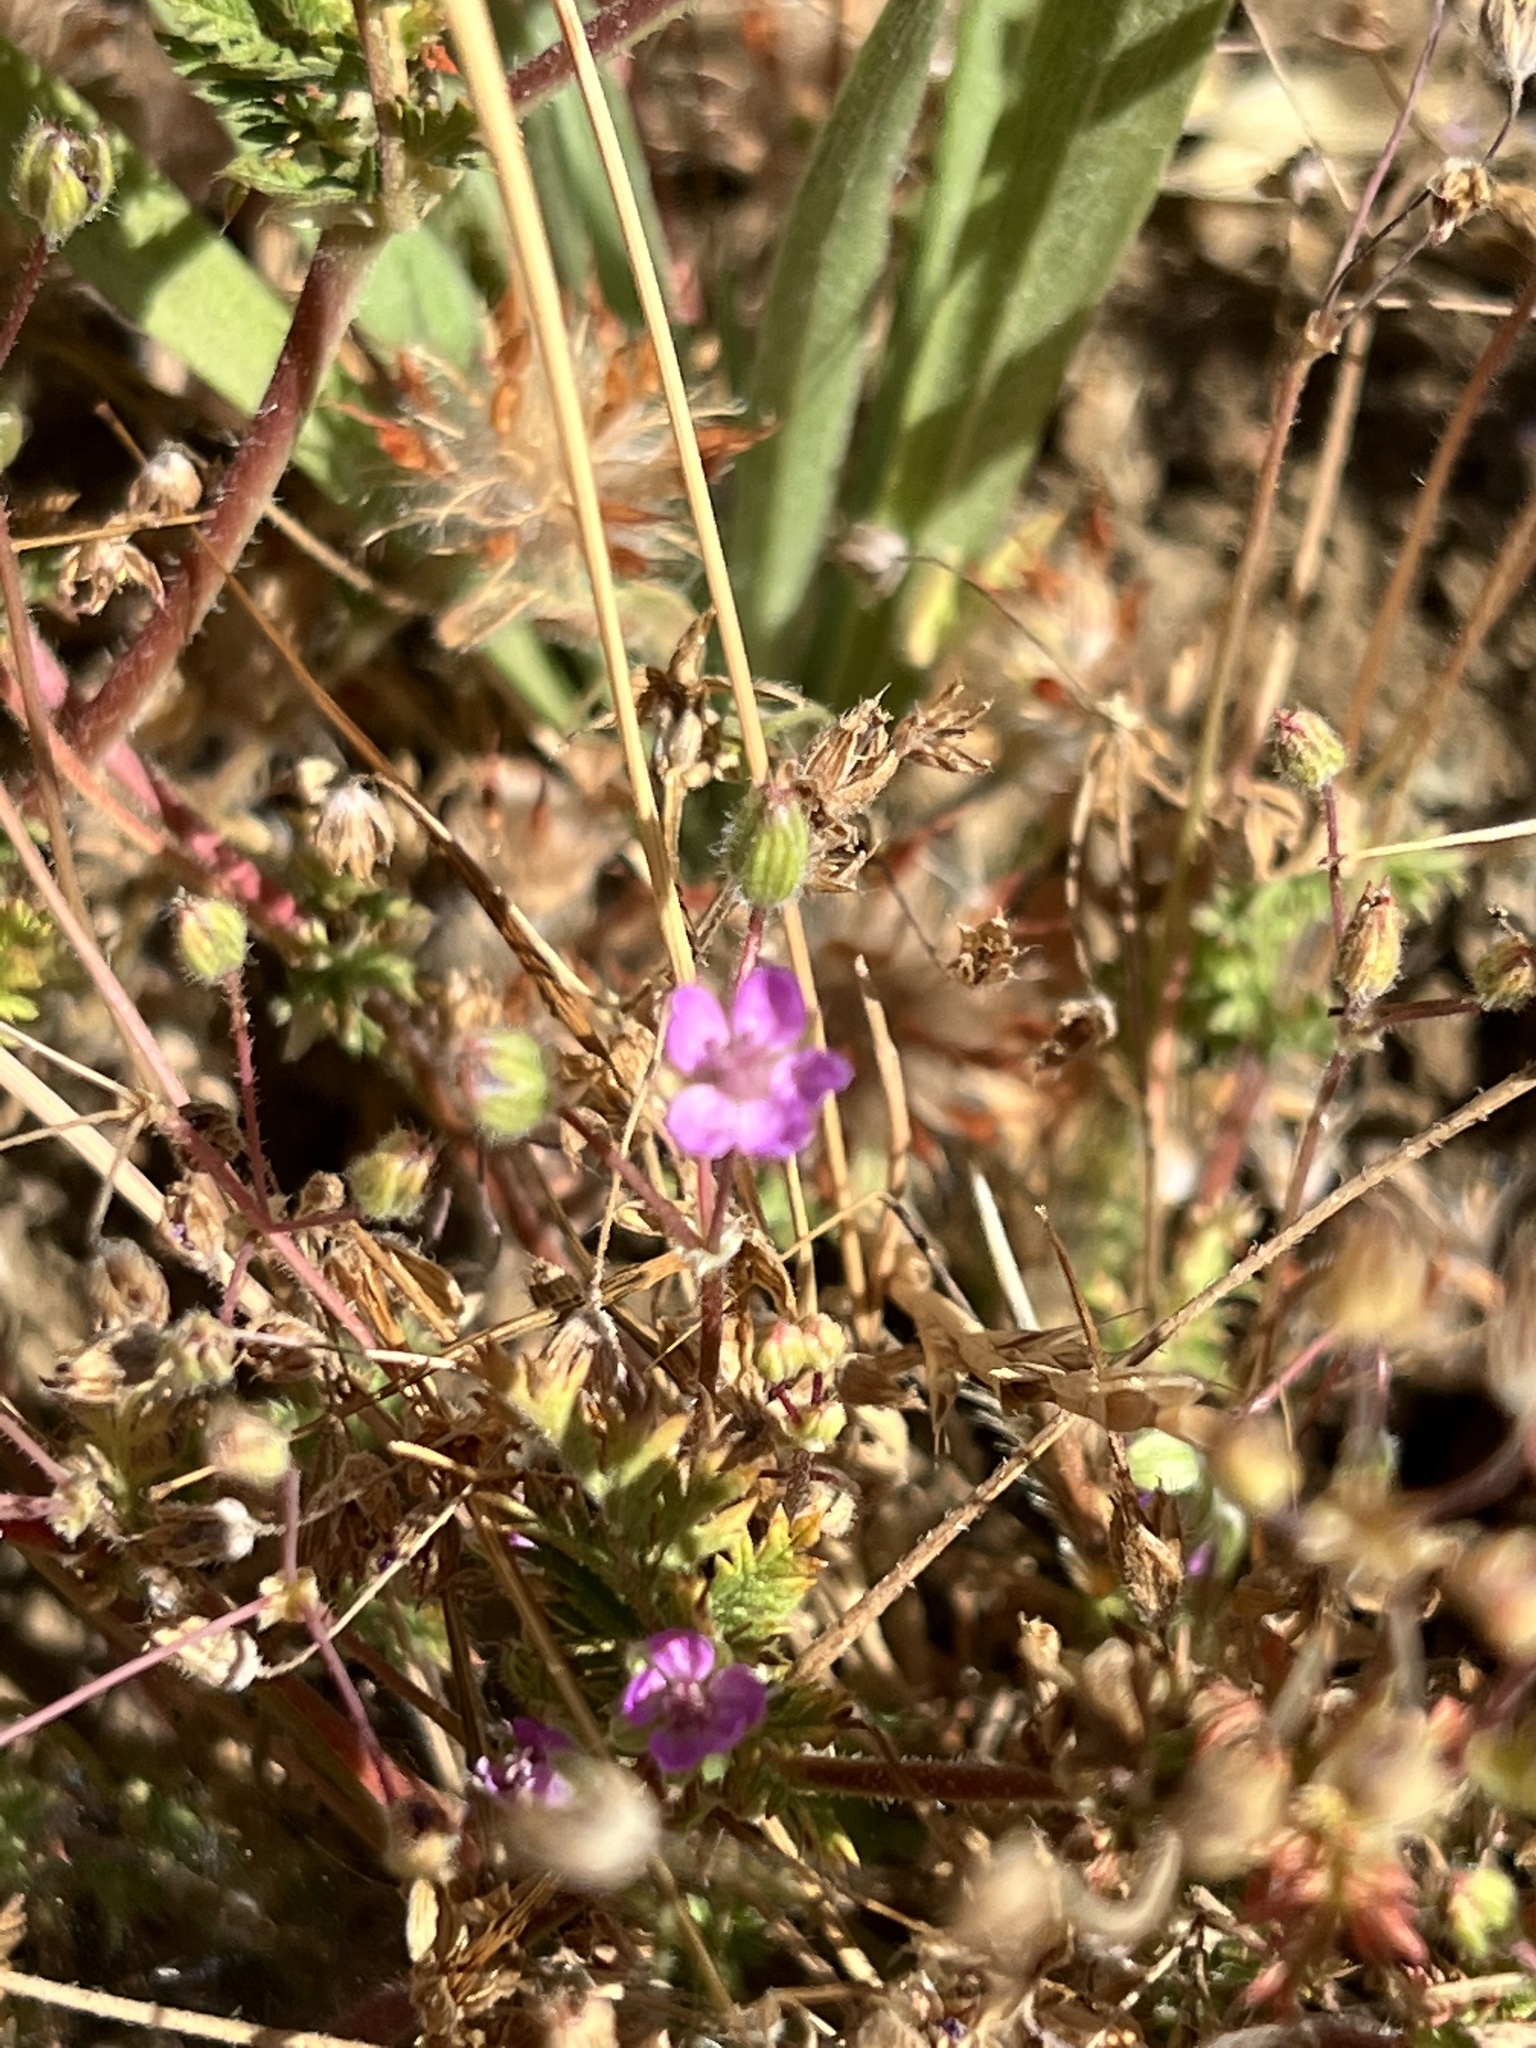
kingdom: Plantae
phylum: Tracheophyta
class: Magnoliopsida
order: Geraniales
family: Geraniaceae
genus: Erodium
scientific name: Erodium cicutarium
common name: Common stork's-bill
